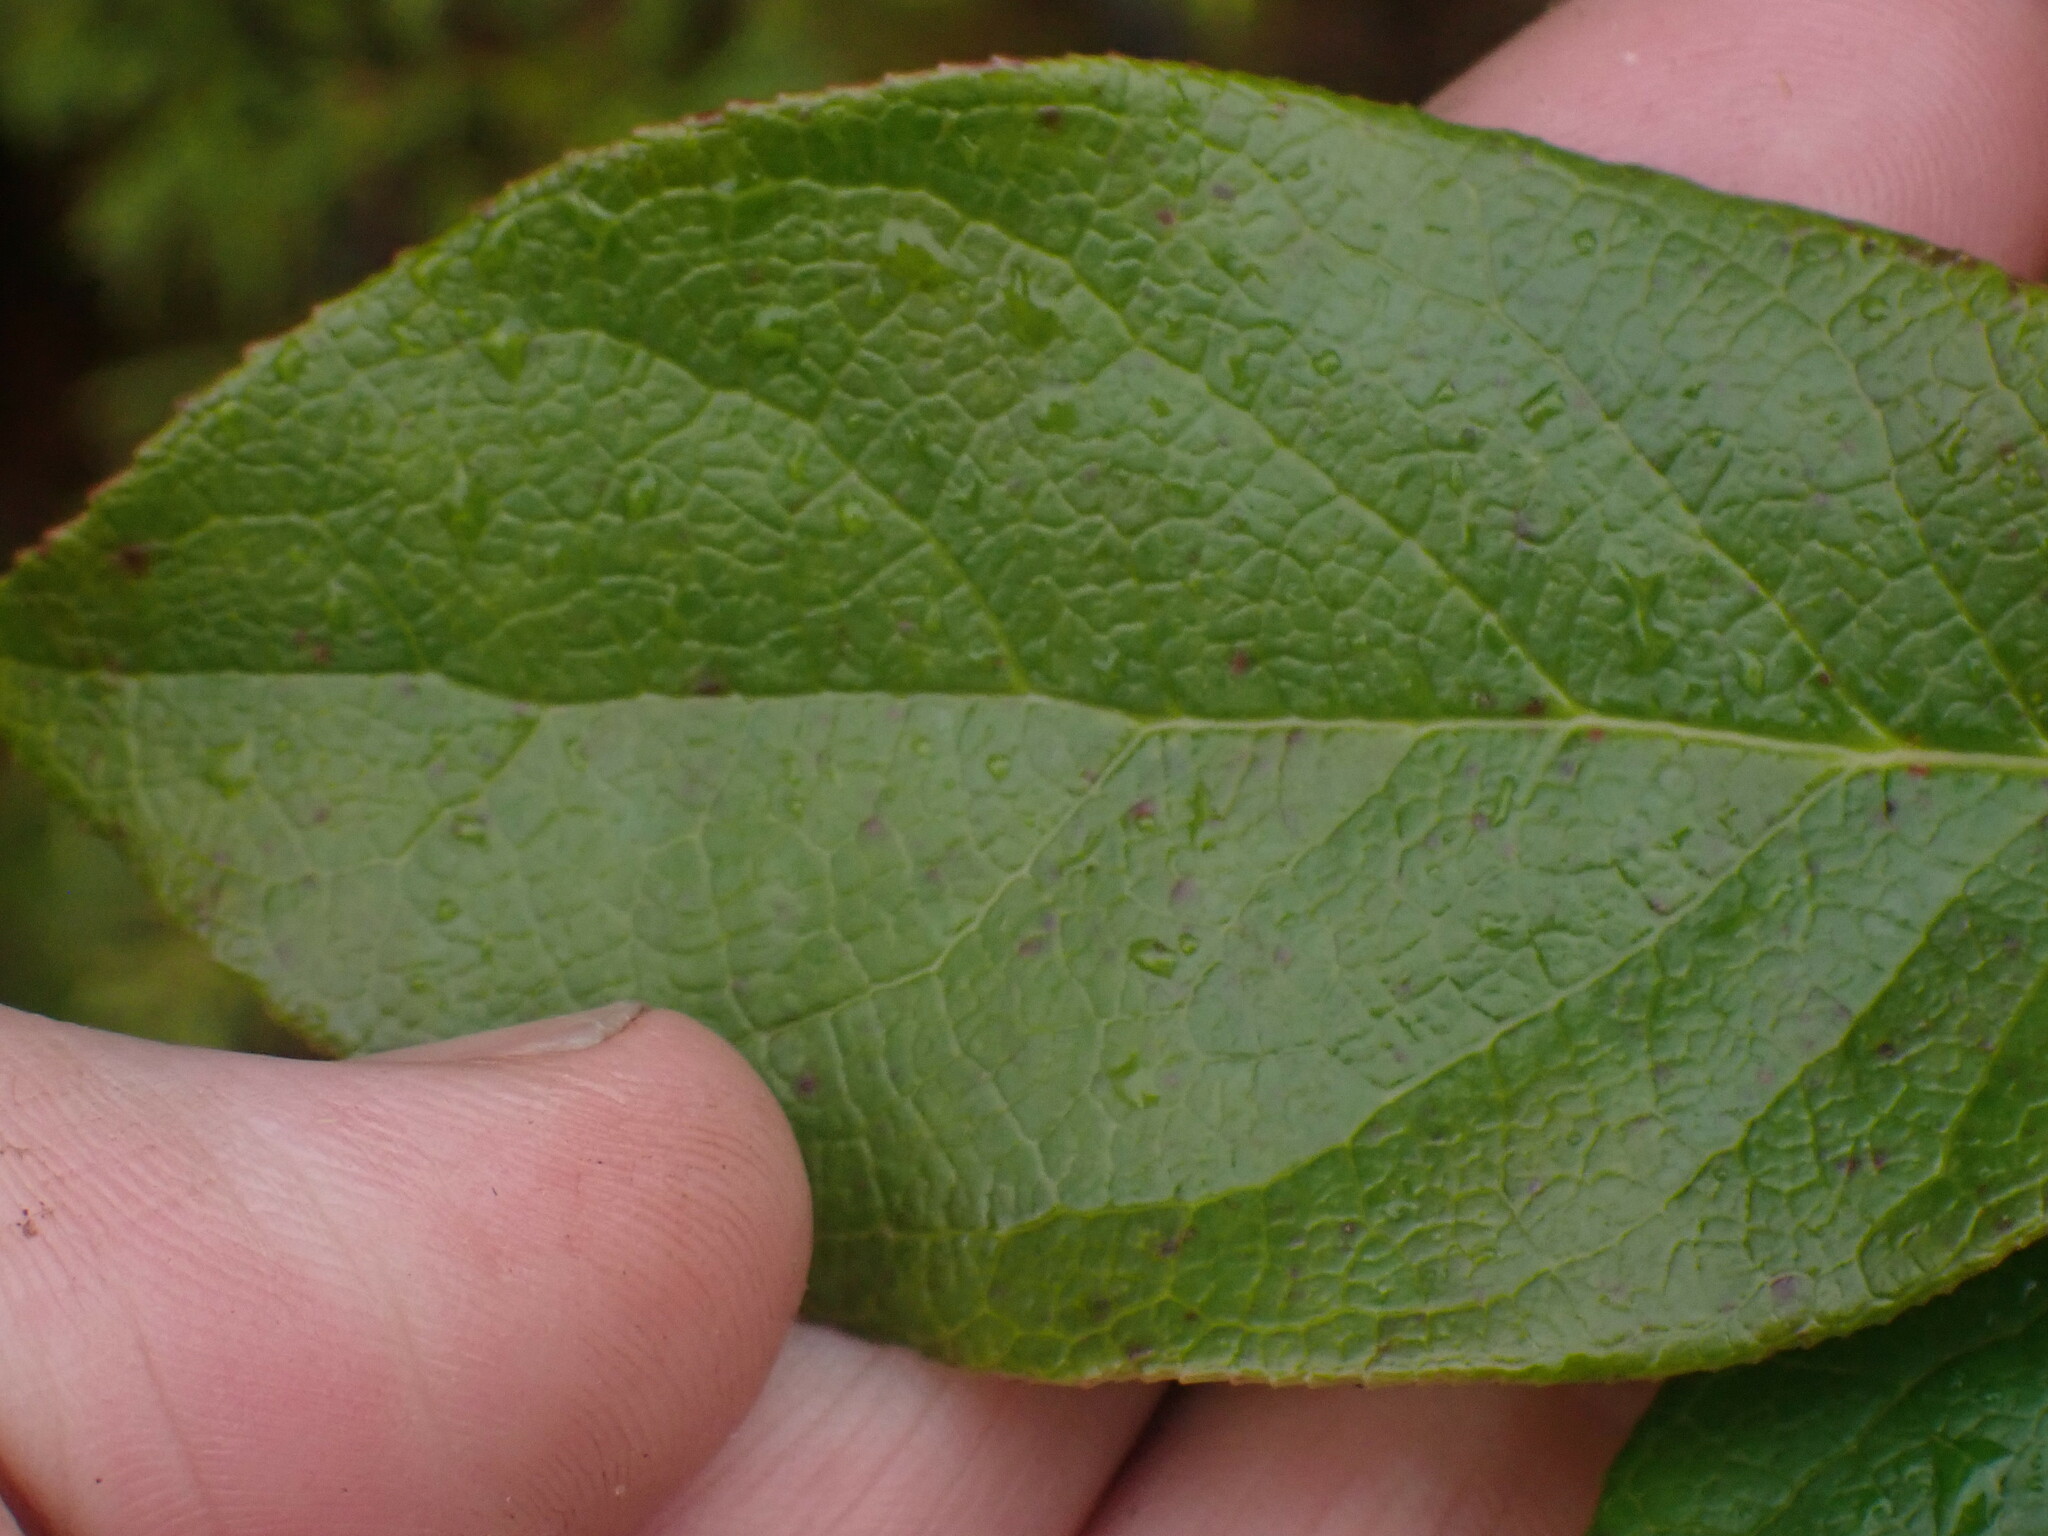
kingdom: Plantae
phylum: Tracheophyta
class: Magnoliopsida
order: Ericales
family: Ericaceae
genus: Gaultheria
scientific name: Gaultheria shallon
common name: Shallon
